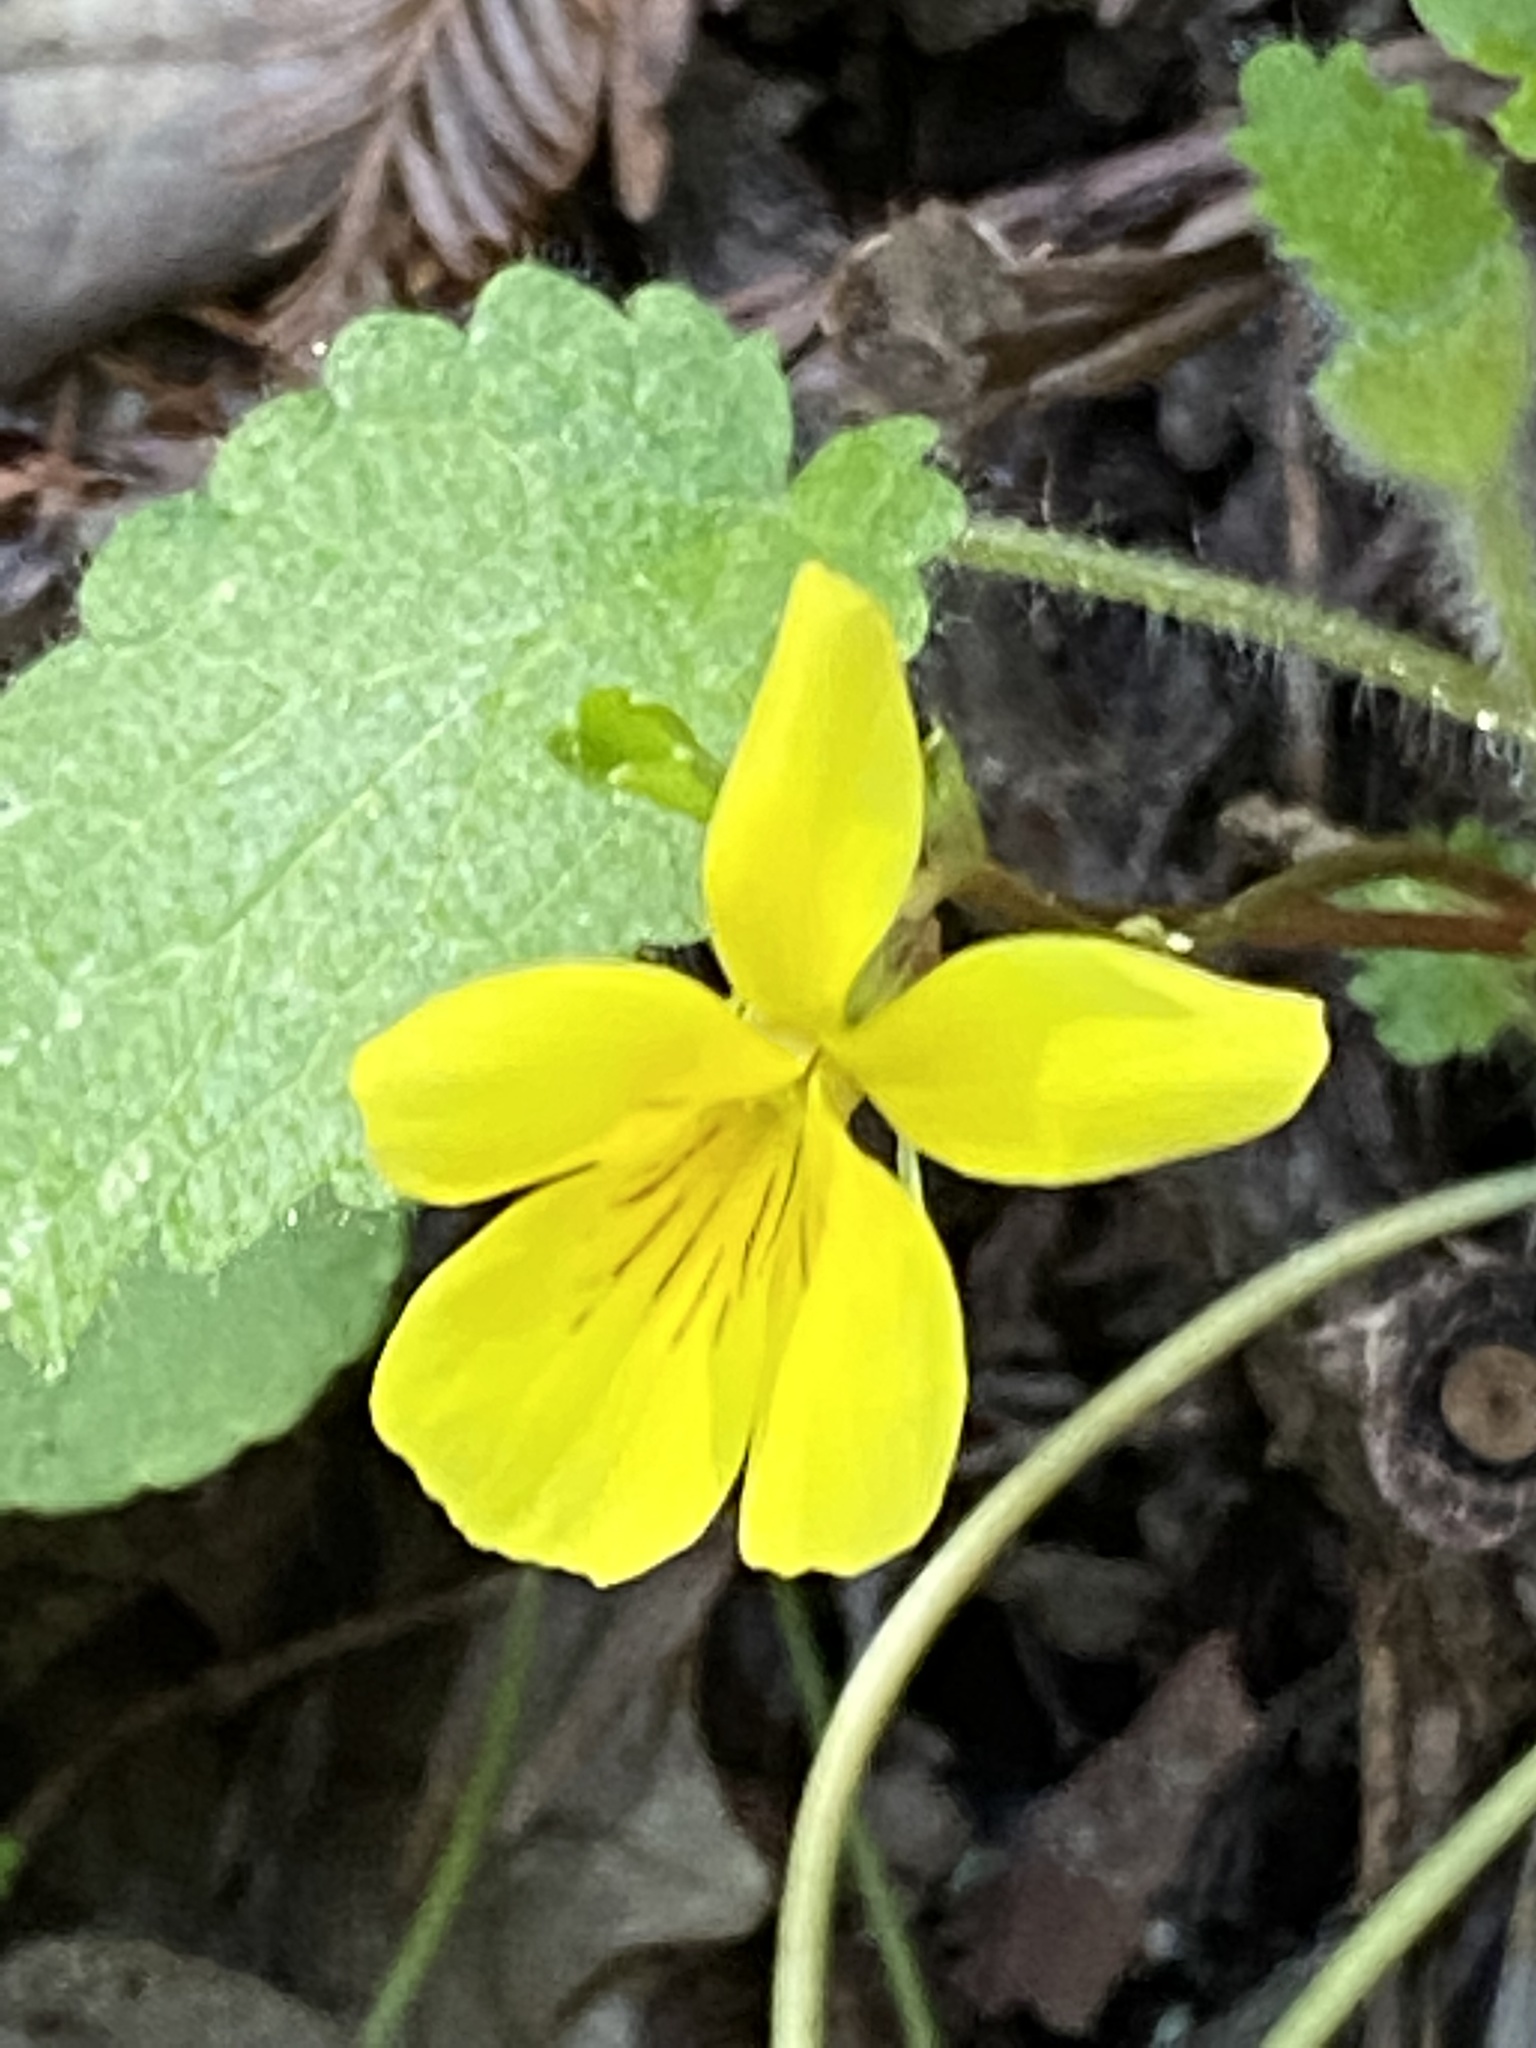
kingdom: Plantae
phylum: Tracheophyta
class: Magnoliopsida
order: Malpighiales
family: Violaceae
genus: Viola
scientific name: Viola sempervirens
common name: Evergreen violet
